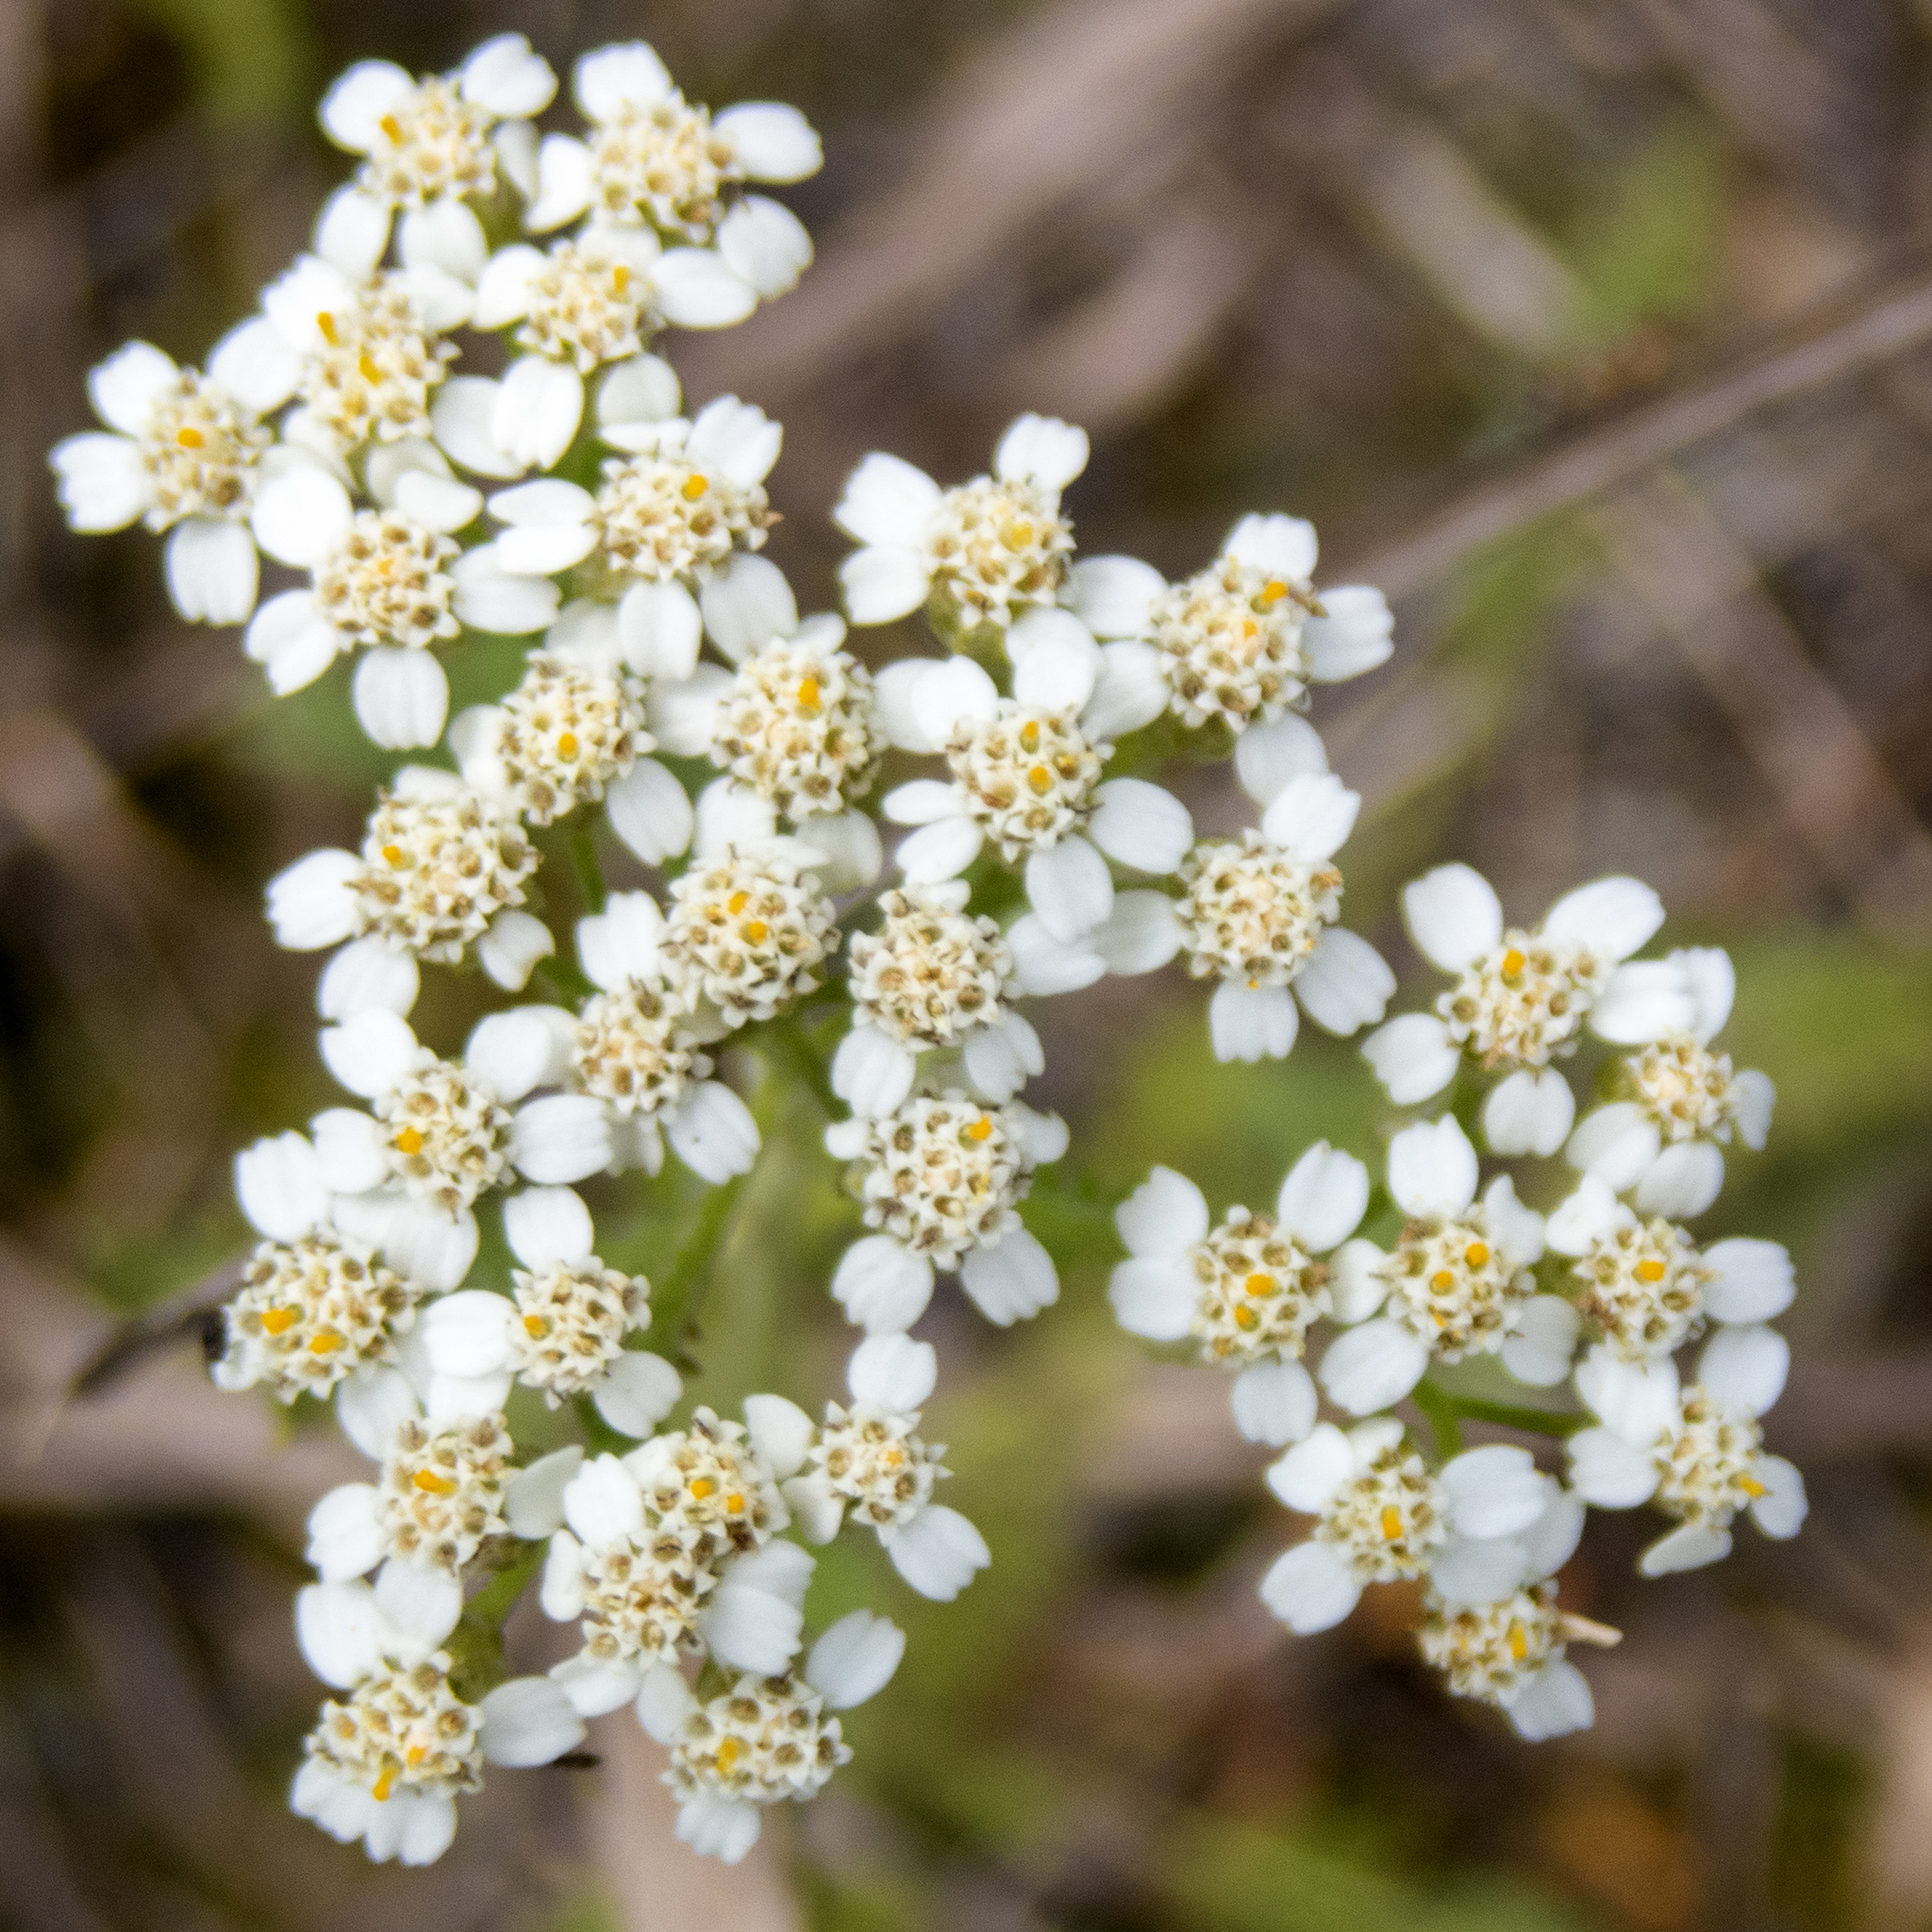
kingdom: Plantae
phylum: Tracheophyta
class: Magnoliopsida
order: Asterales
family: Asteraceae
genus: Achillea
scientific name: Achillea millefolium
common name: Yarrow
